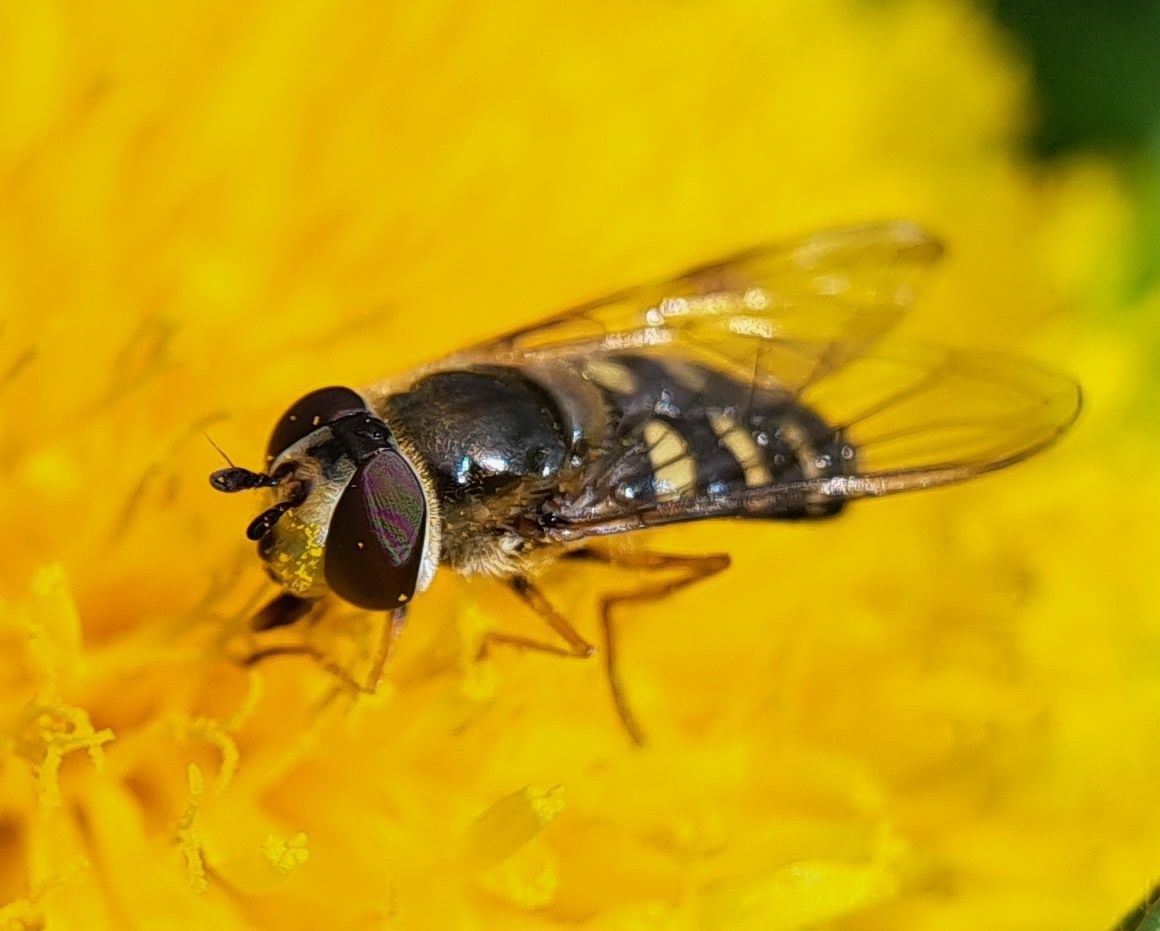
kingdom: Animalia
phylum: Arthropoda
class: Insecta
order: Diptera
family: Syrphidae
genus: Eupeodes
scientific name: Eupeodes luniger
